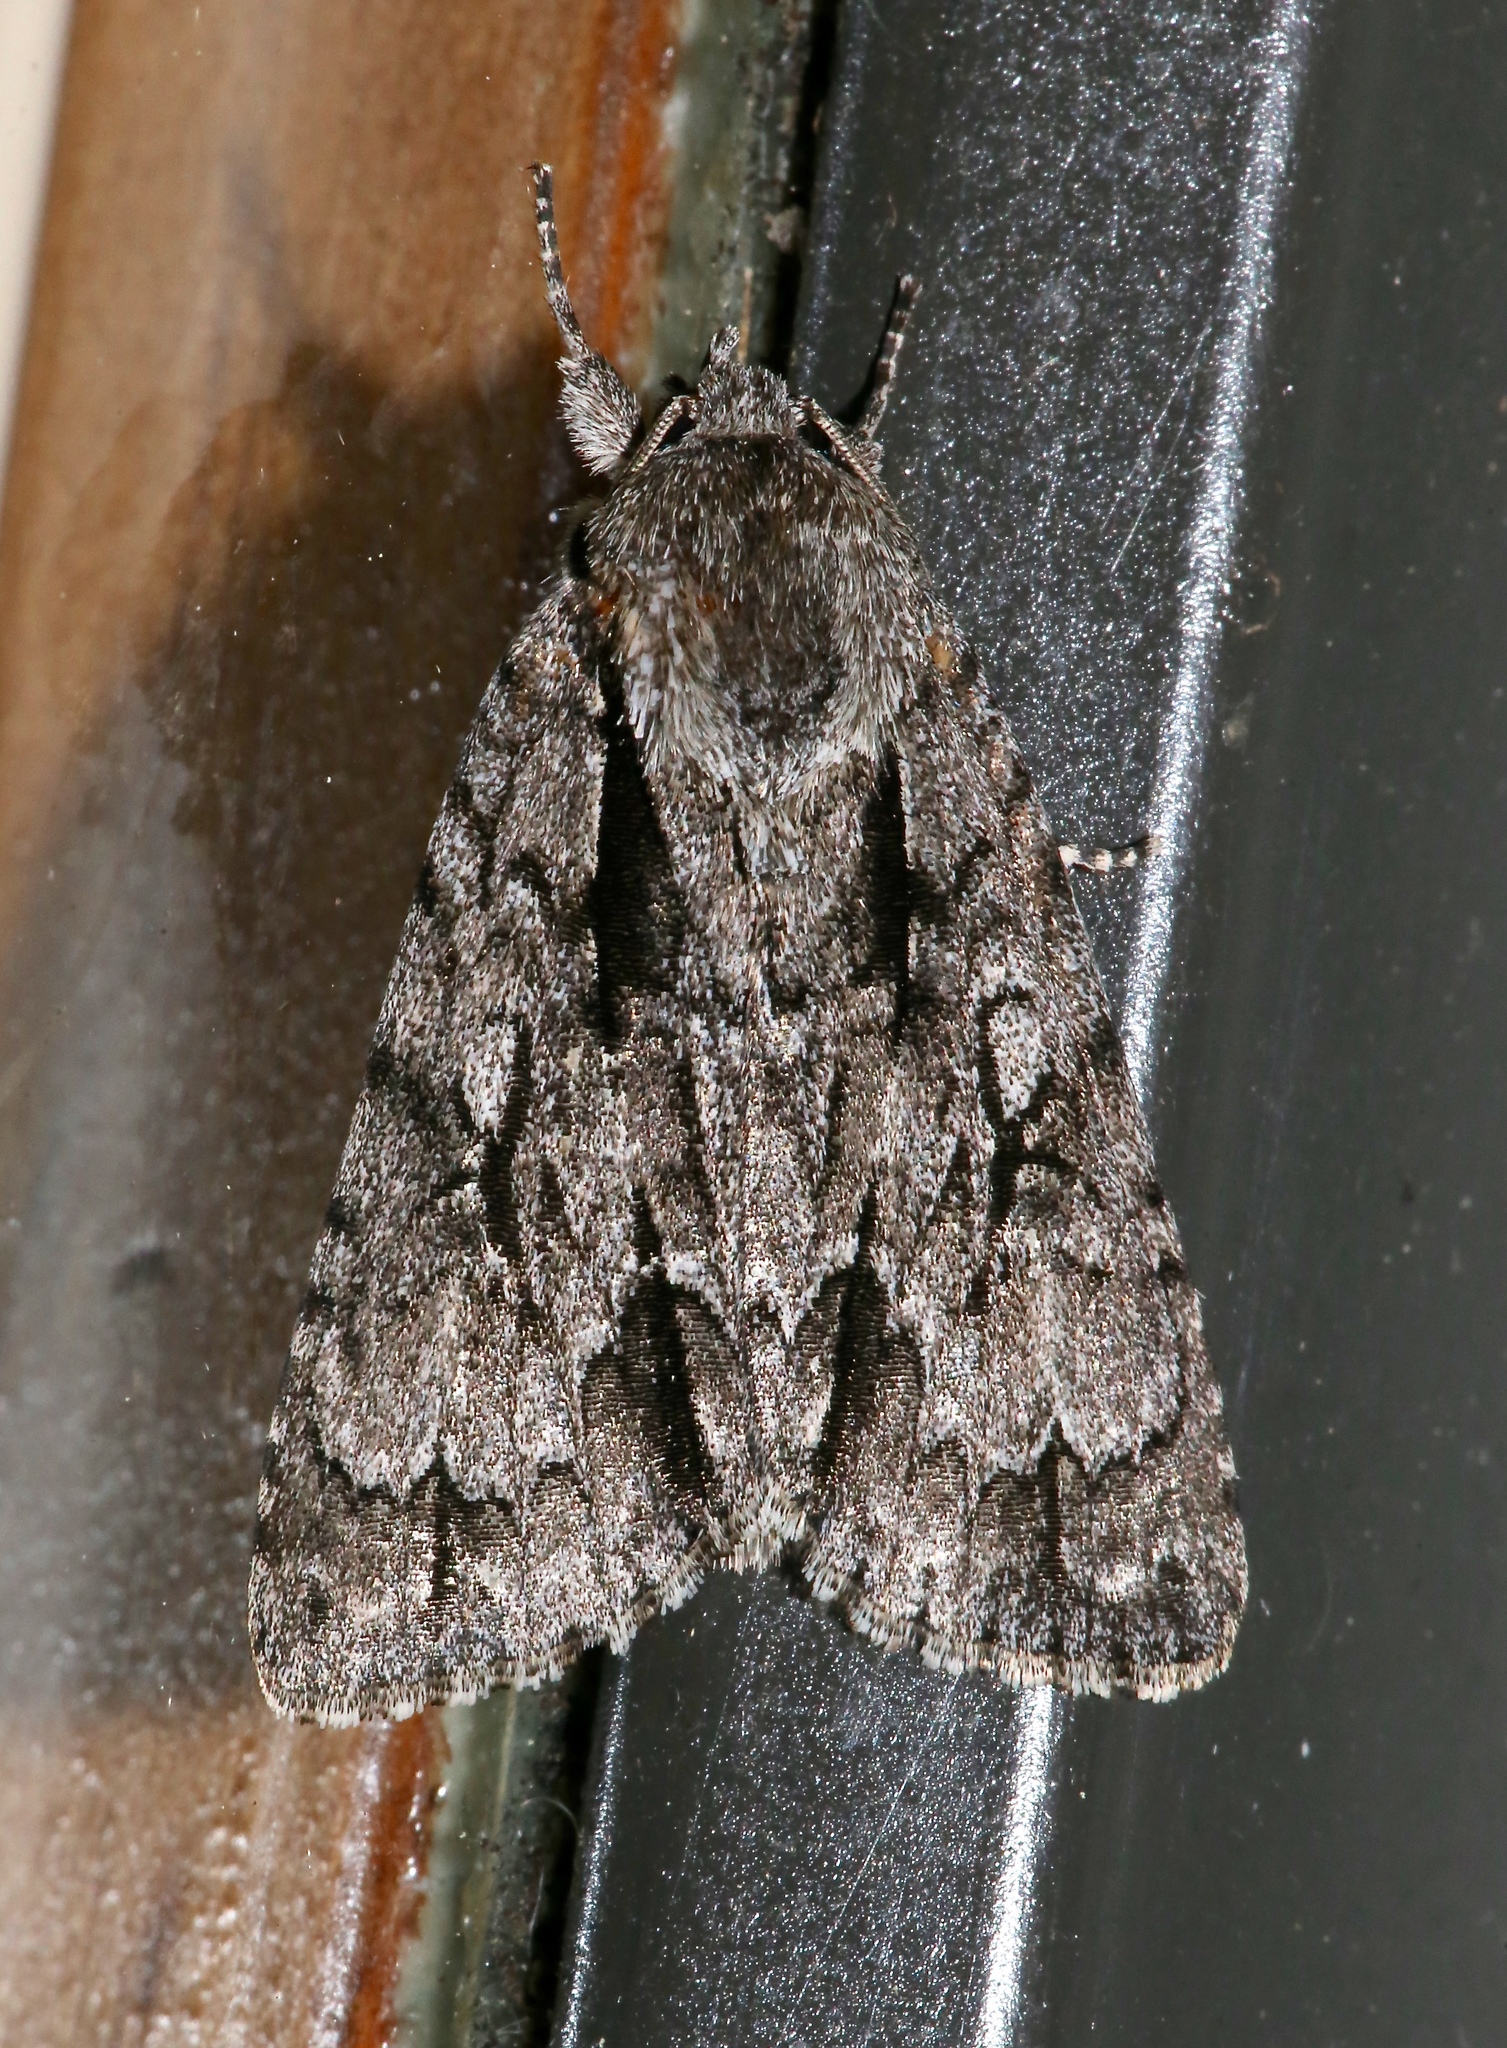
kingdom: Animalia
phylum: Arthropoda
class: Insecta
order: Lepidoptera
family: Noctuidae
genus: Acronicta
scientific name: Acronicta hasta
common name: Cherry dagger
